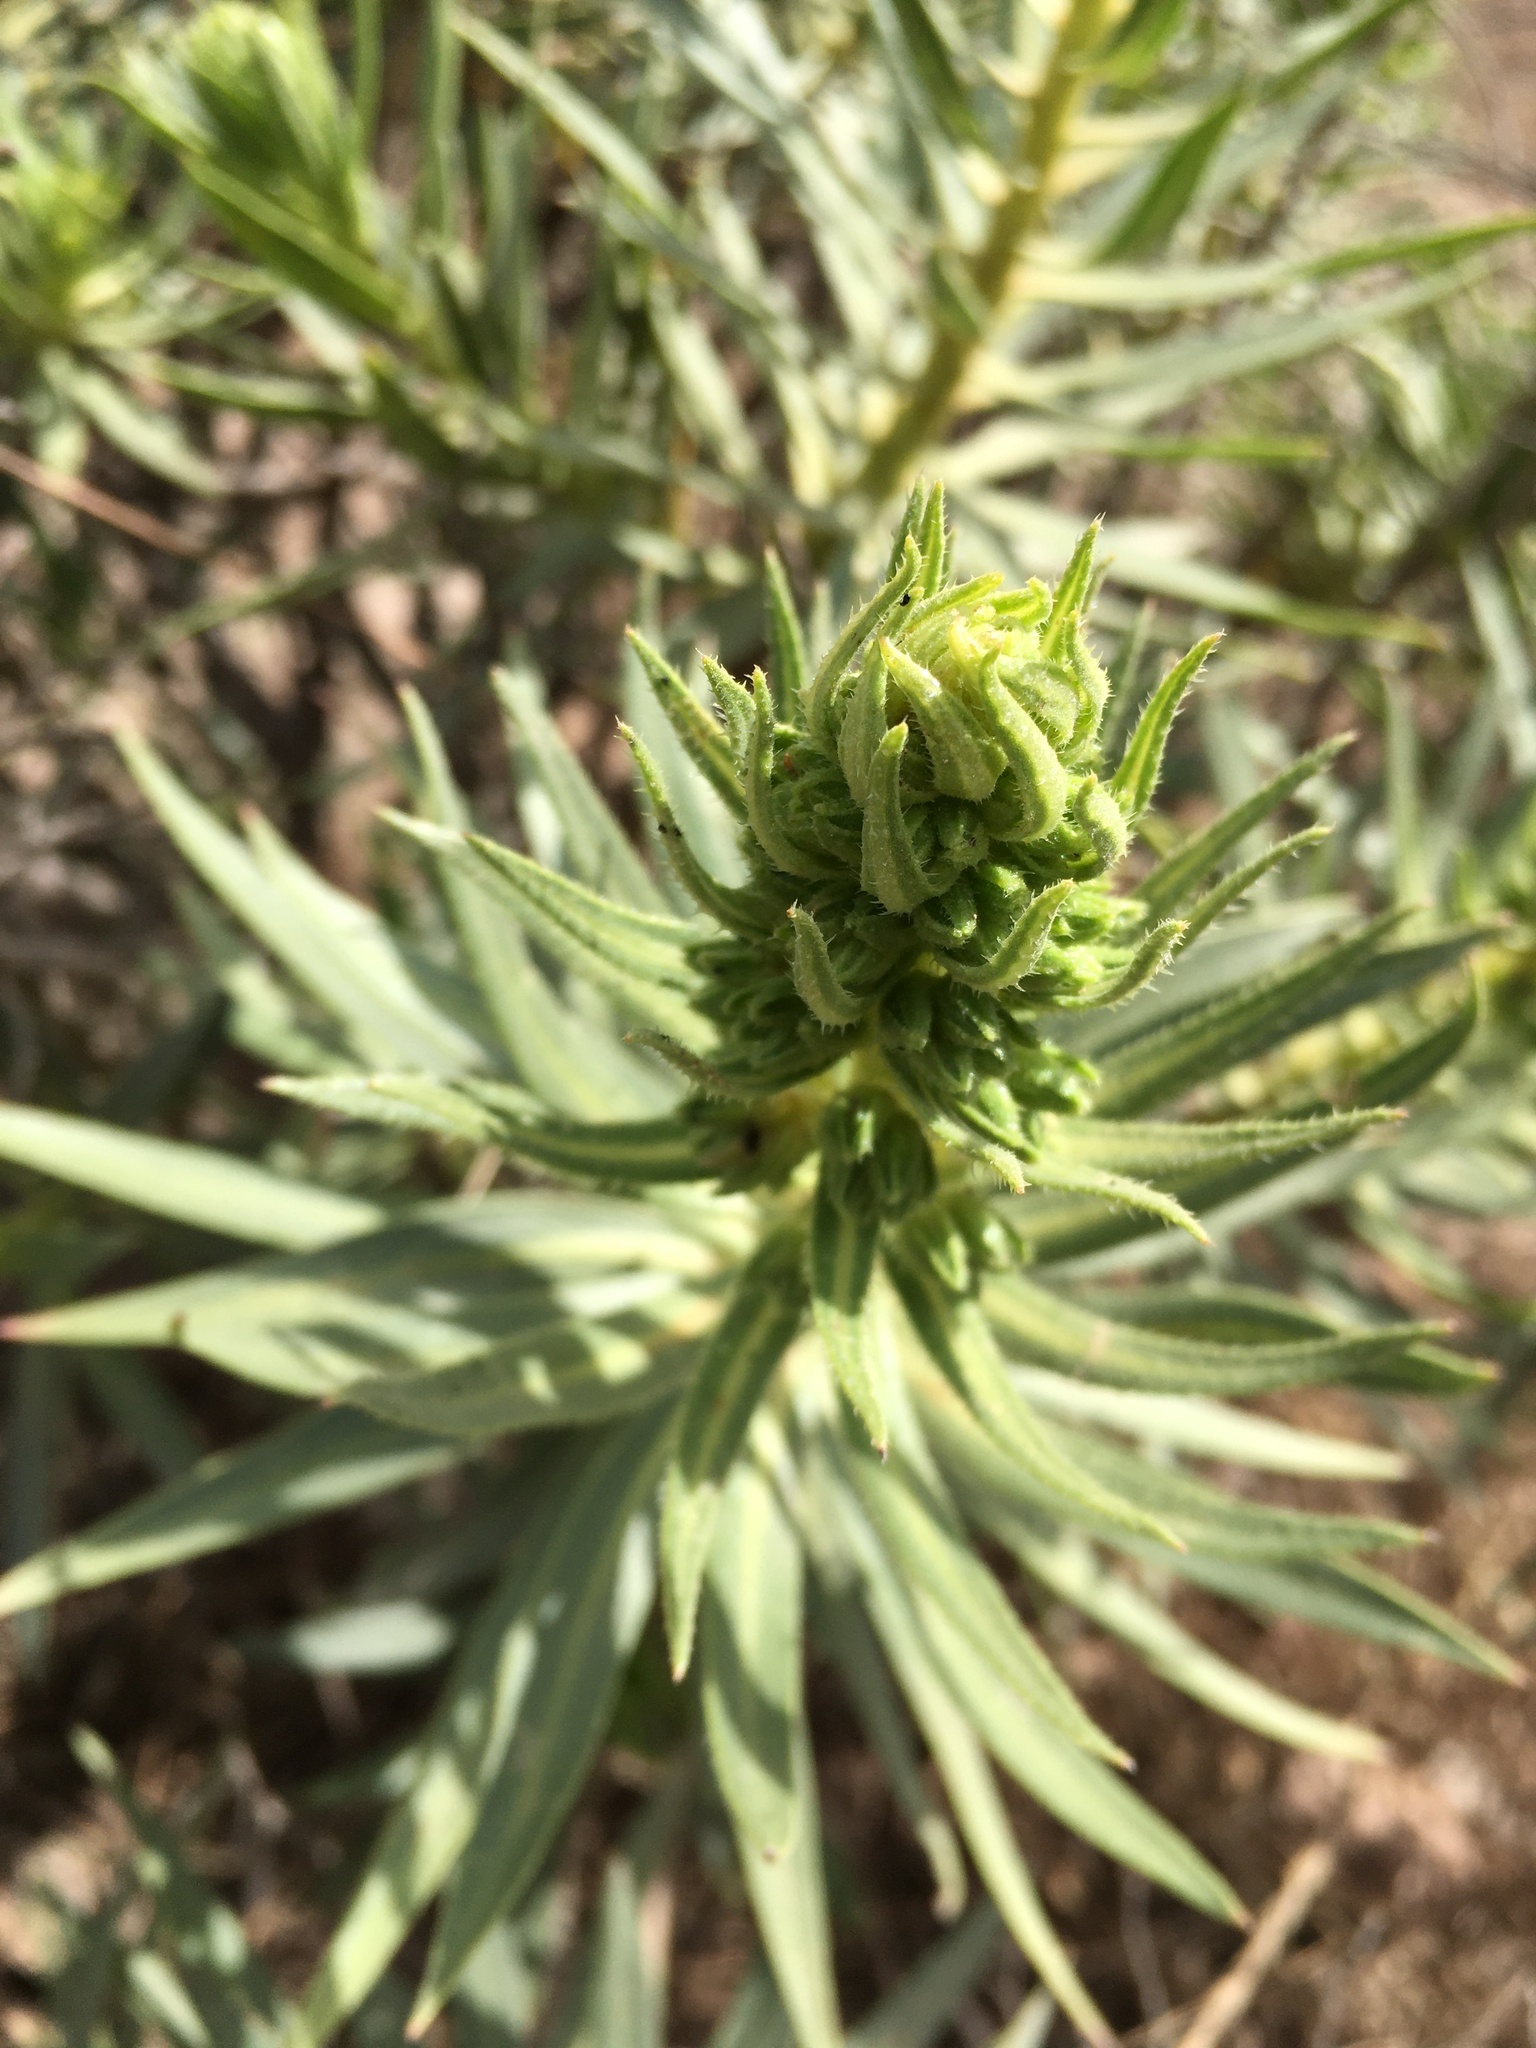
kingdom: Plantae
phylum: Tracheophyta
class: Magnoliopsida
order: Asterales
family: Asteraceae
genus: Dittrichia
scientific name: Dittrichia viscosa
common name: Woody fleabane
